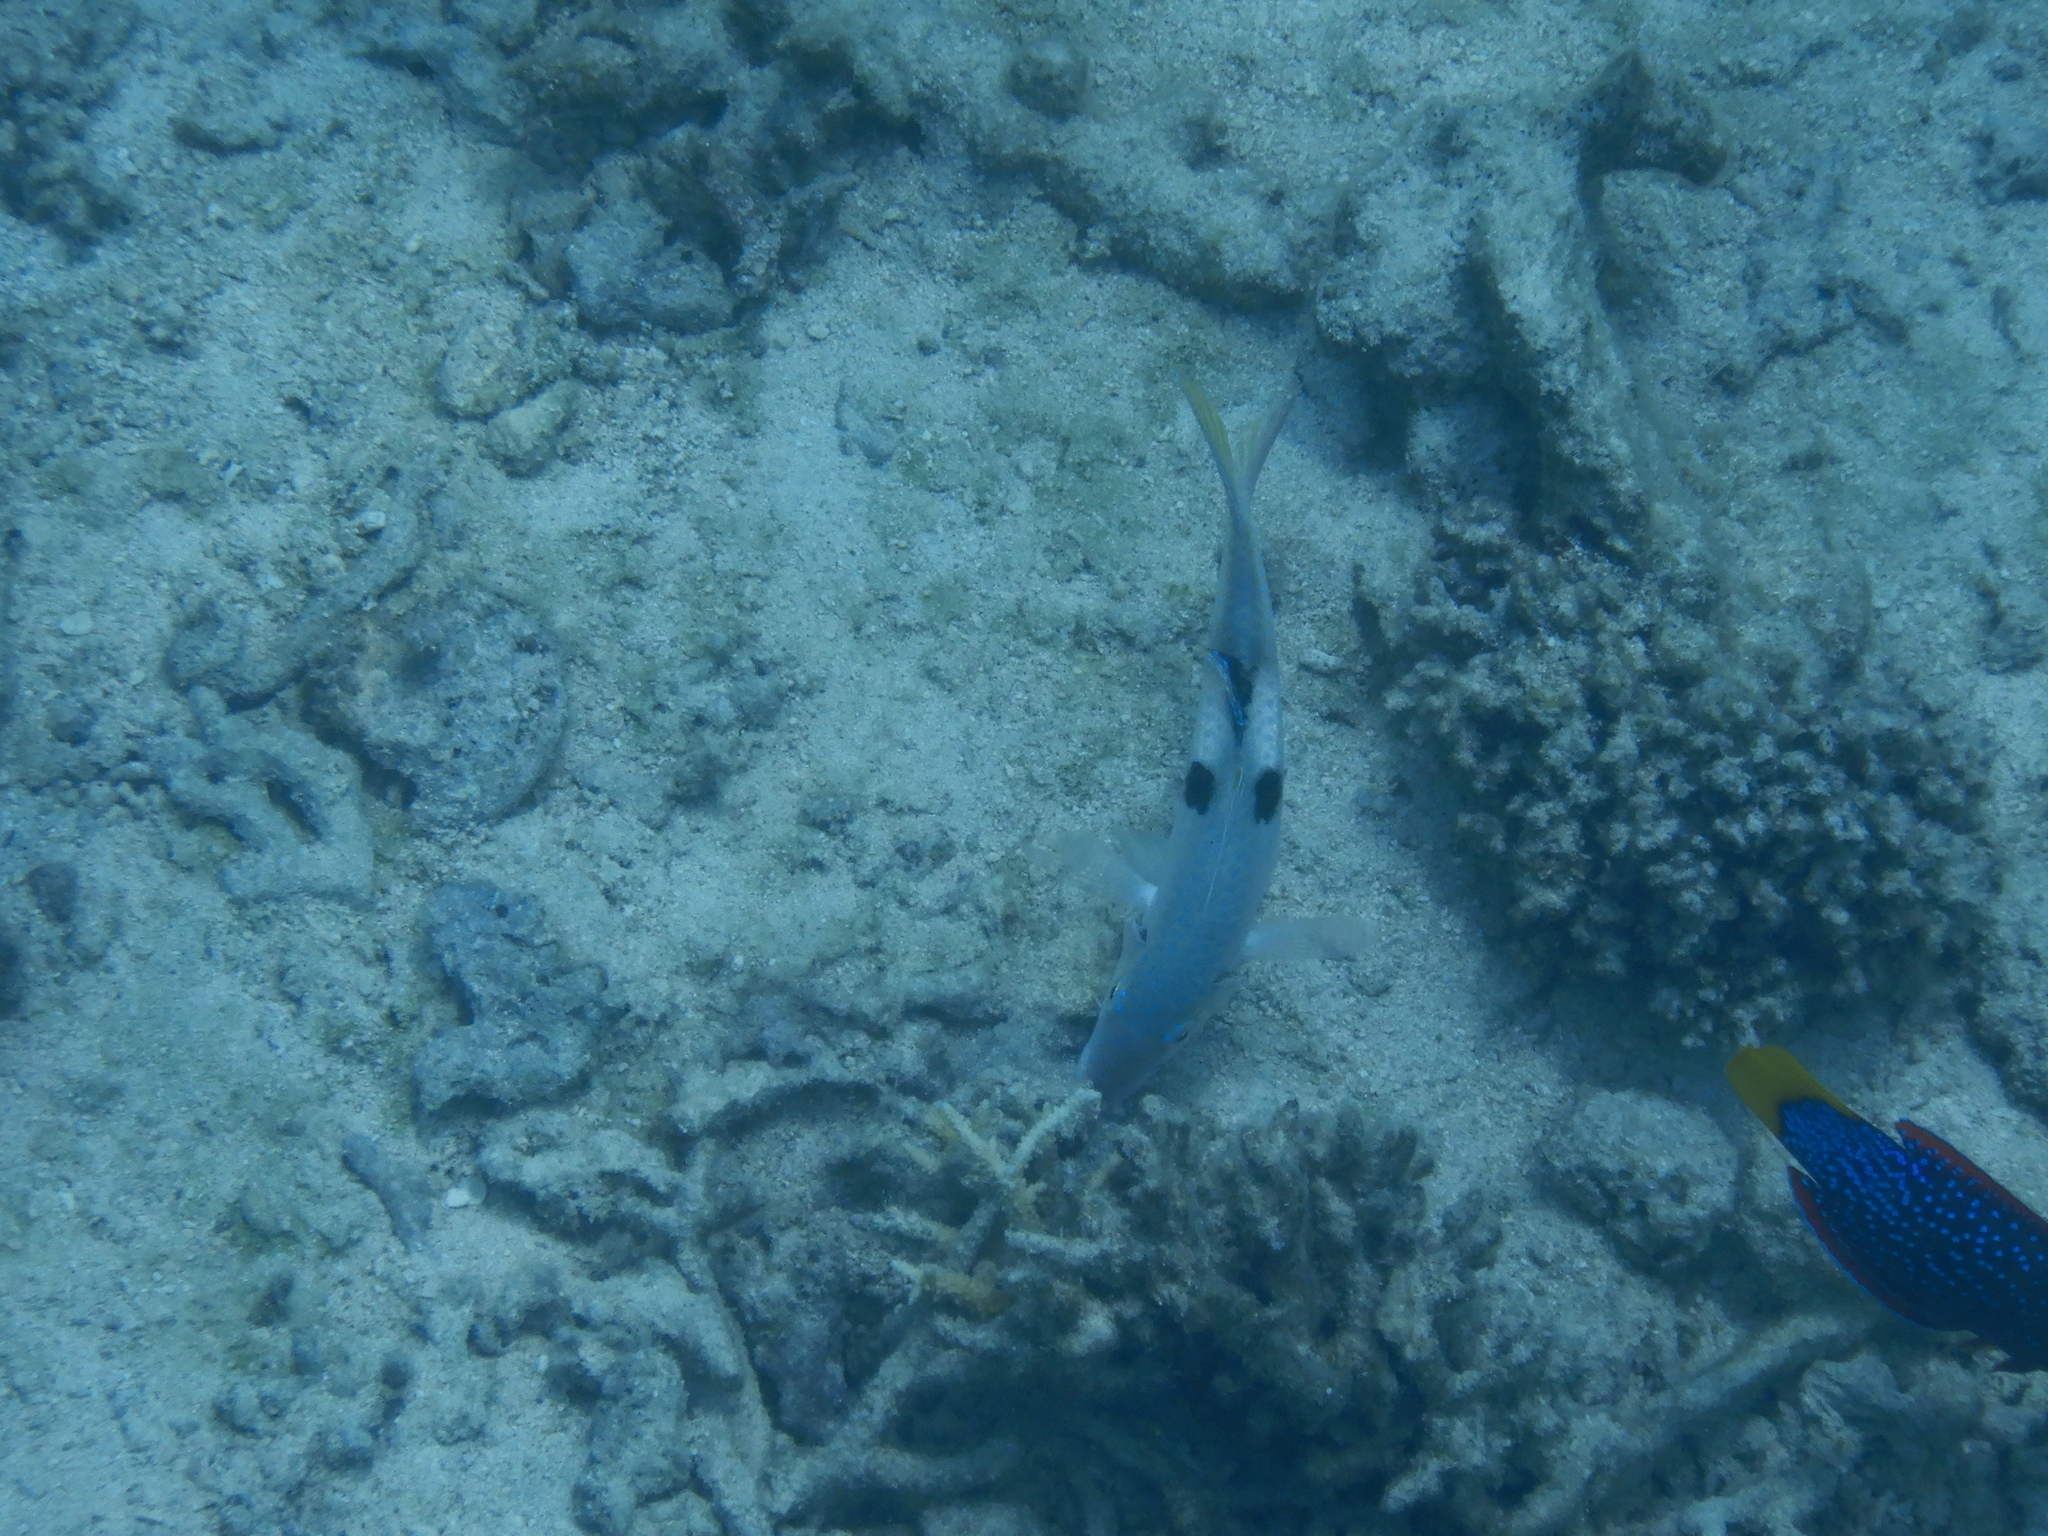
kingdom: Animalia
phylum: Chordata
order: Perciformes
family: Mullidae
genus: Parupeneus
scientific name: Parupeneus pleurostigma
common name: Sidespot goatfish
